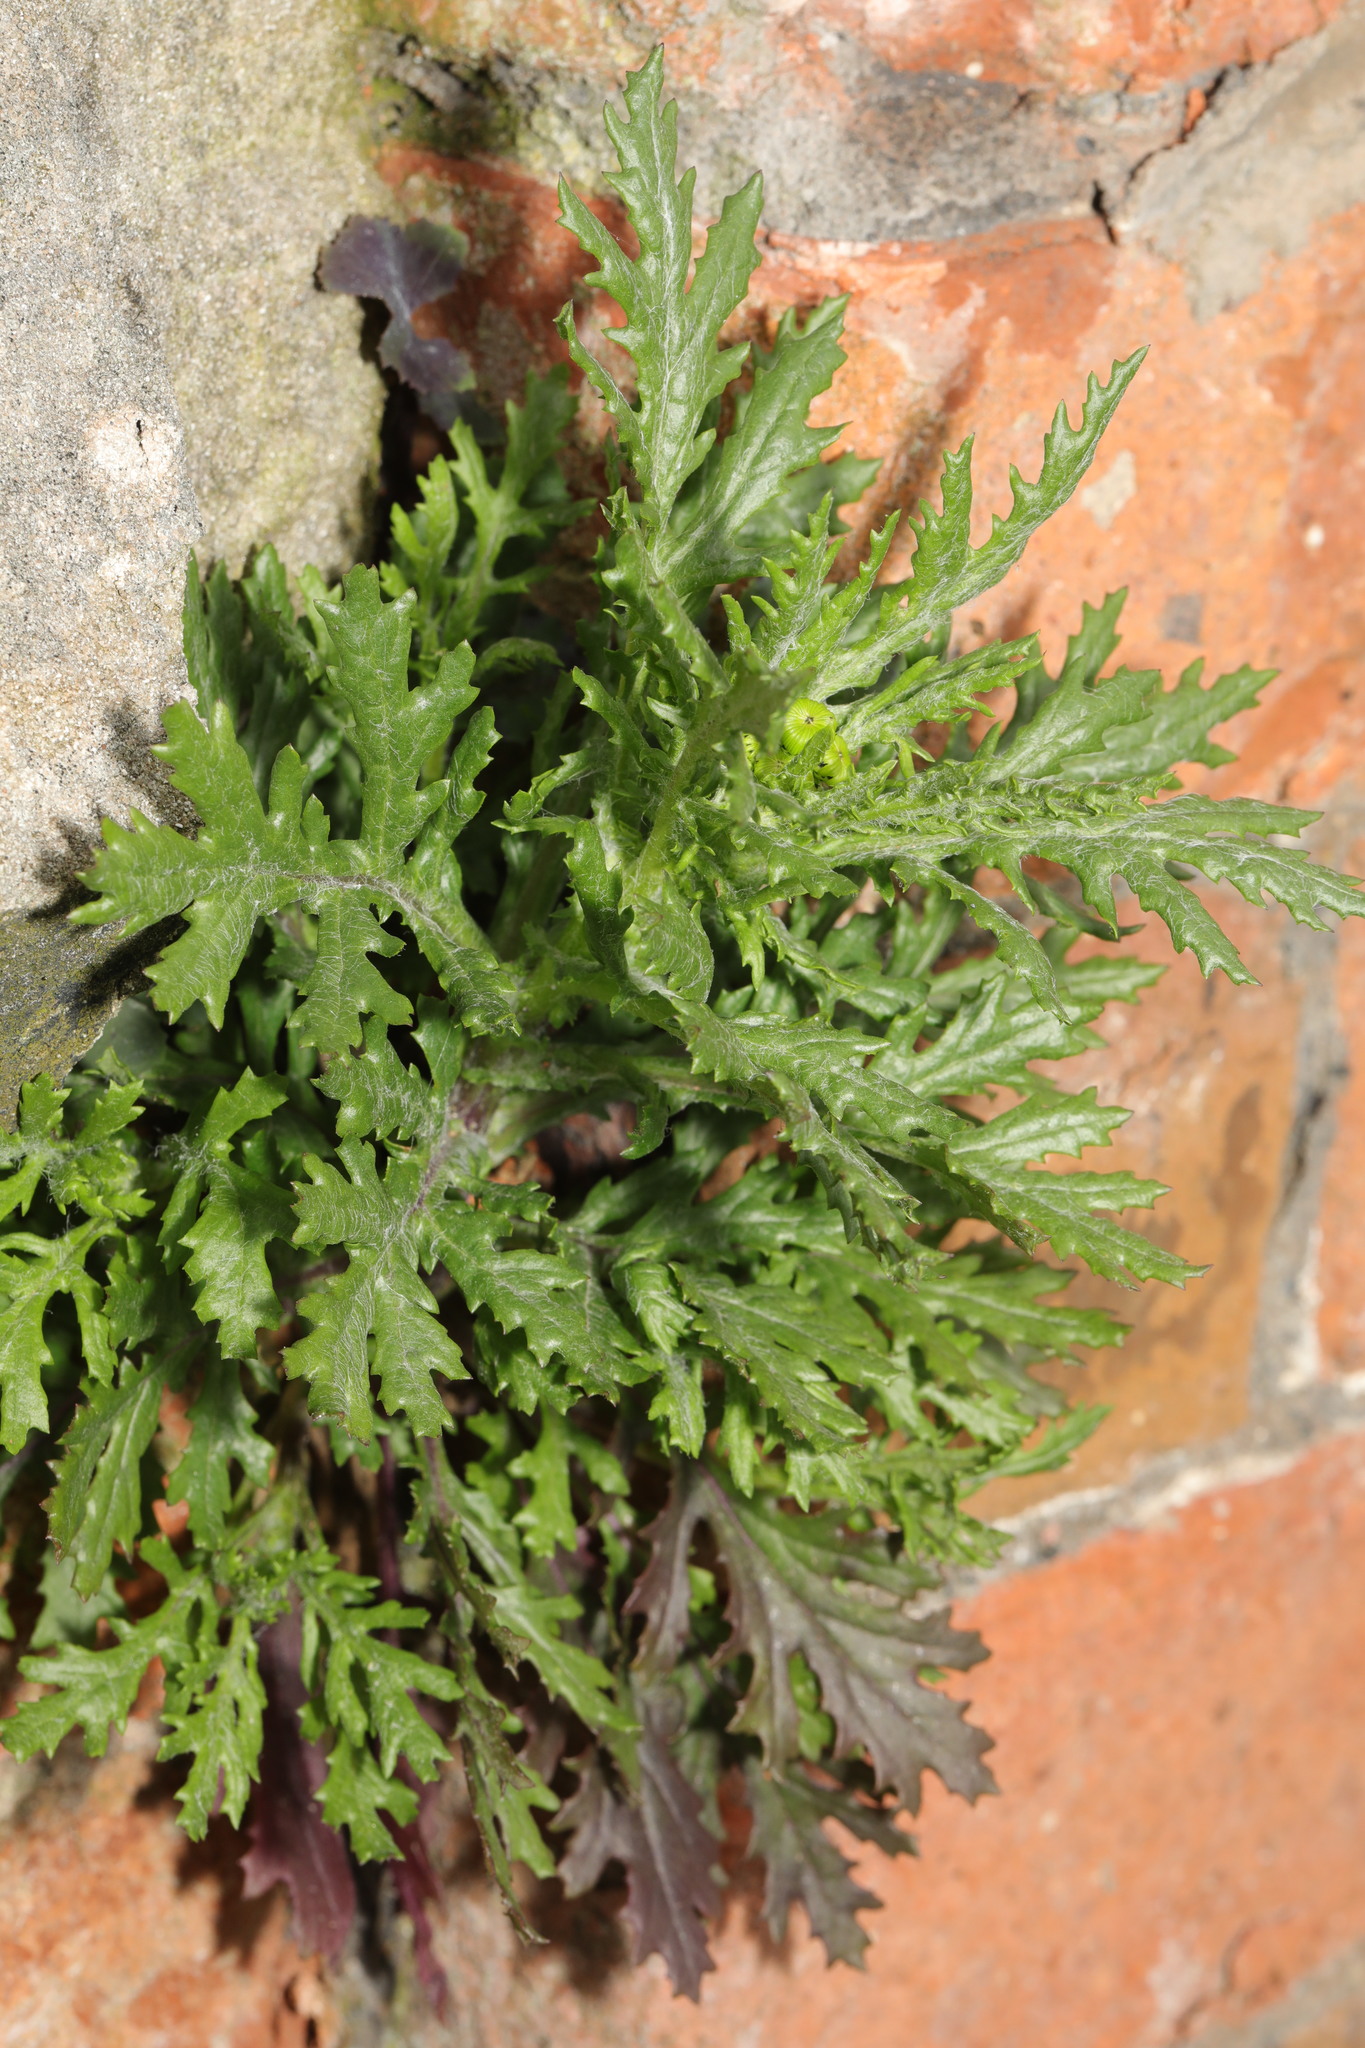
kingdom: Plantae
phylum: Tracheophyta
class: Magnoliopsida
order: Asterales
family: Asteraceae
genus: Senecio
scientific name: Senecio squalidus
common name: Oxford ragwort
